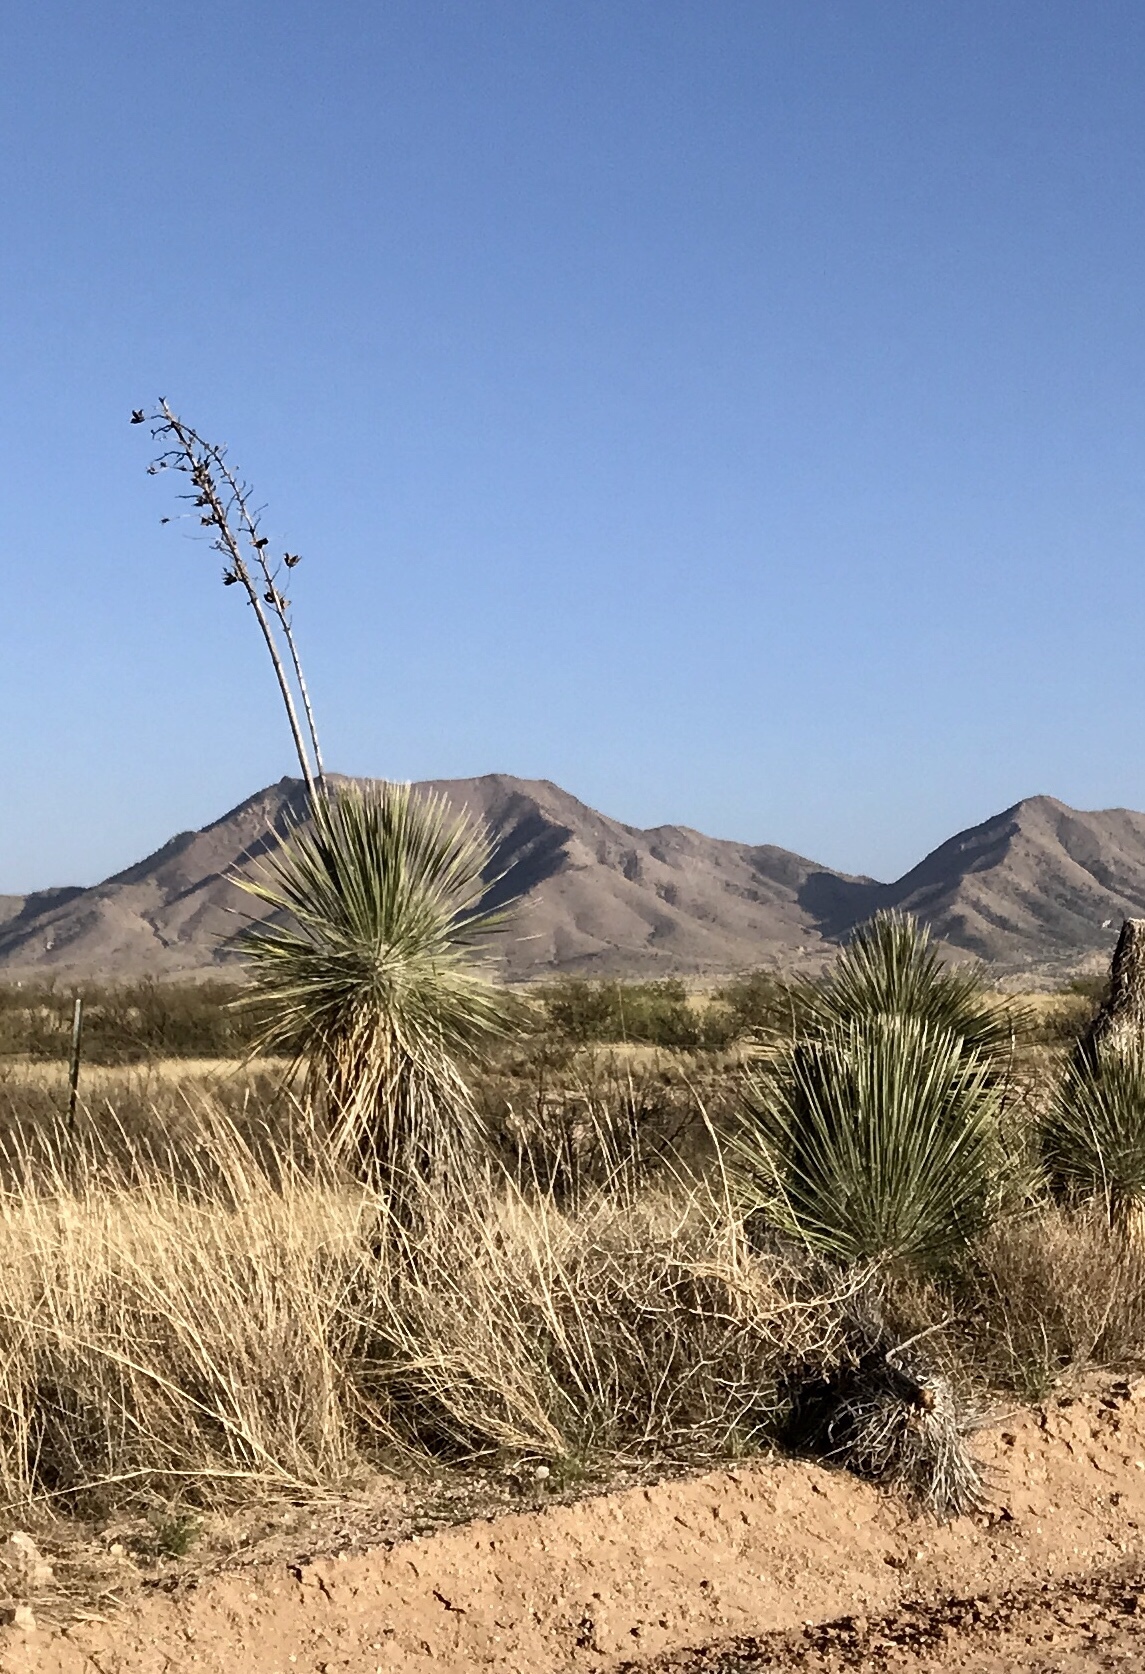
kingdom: Plantae
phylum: Tracheophyta
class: Liliopsida
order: Asparagales
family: Asparagaceae
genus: Yucca
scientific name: Yucca elata
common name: Palmella
